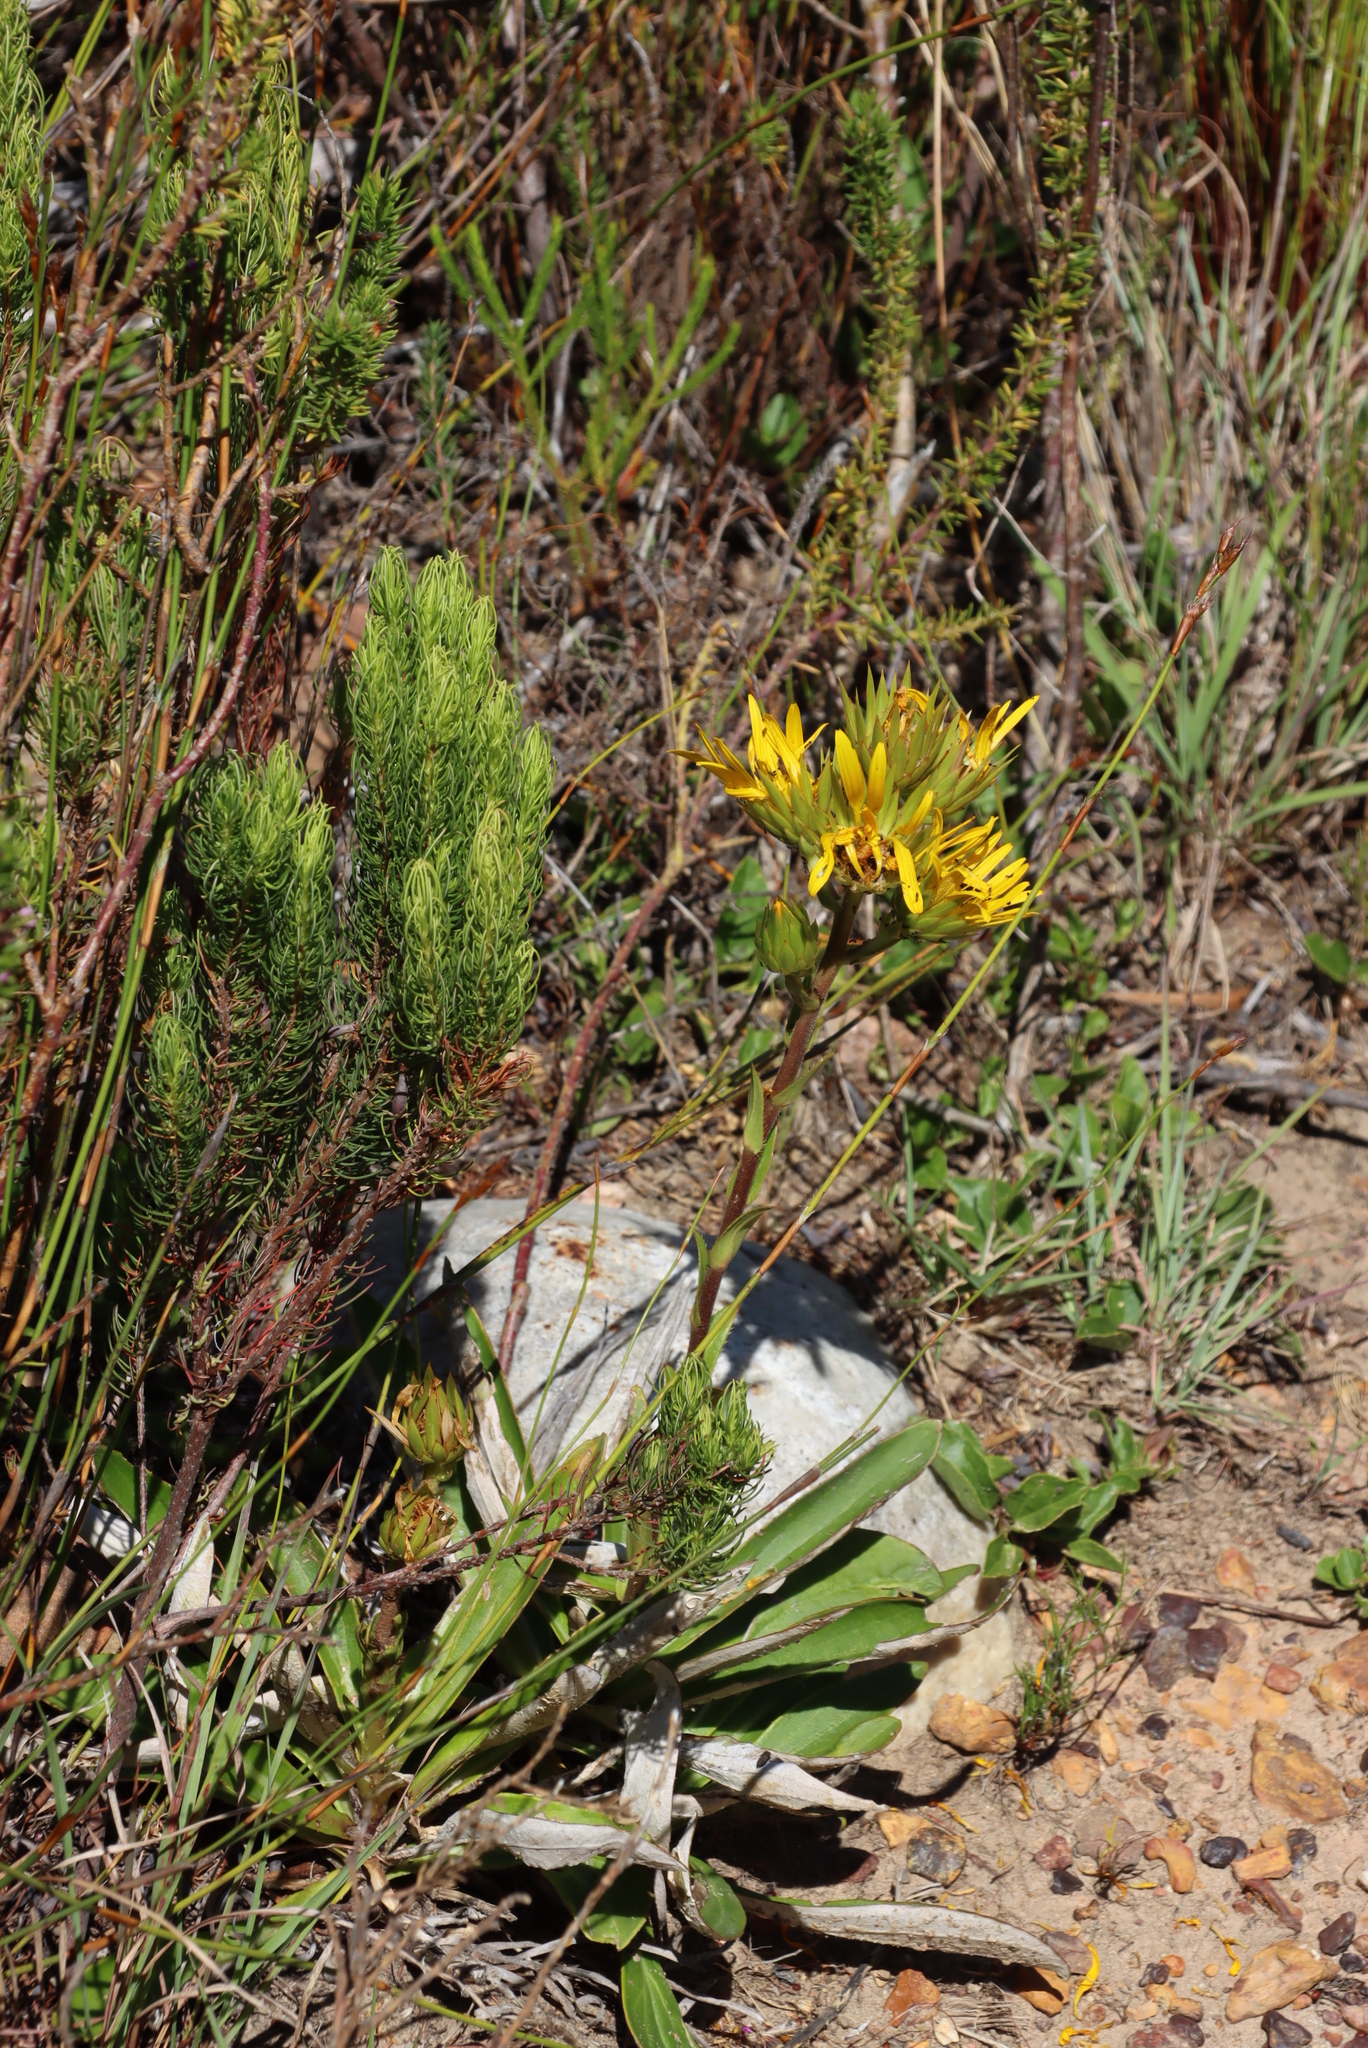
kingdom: Plantae
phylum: Tracheophyta
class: Magnoliopsida
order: Asterales
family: Asteraceae
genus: Berkheya
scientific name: Berkheya herbacea
